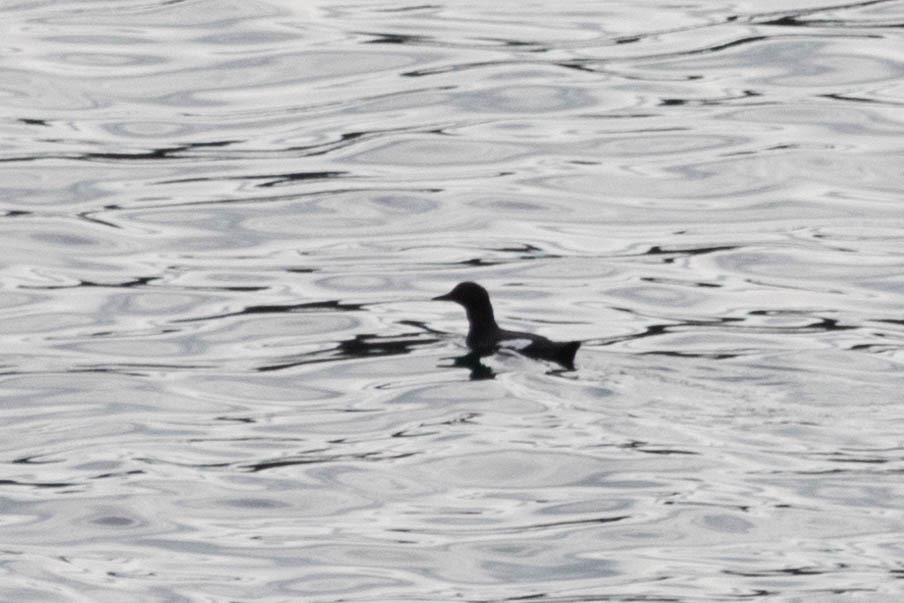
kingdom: Animalia
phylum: Chordata
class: Aves
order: Charadriiformes
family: Alcidae
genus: Cepphus
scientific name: Cepphus columba
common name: Pigeon guillemot
